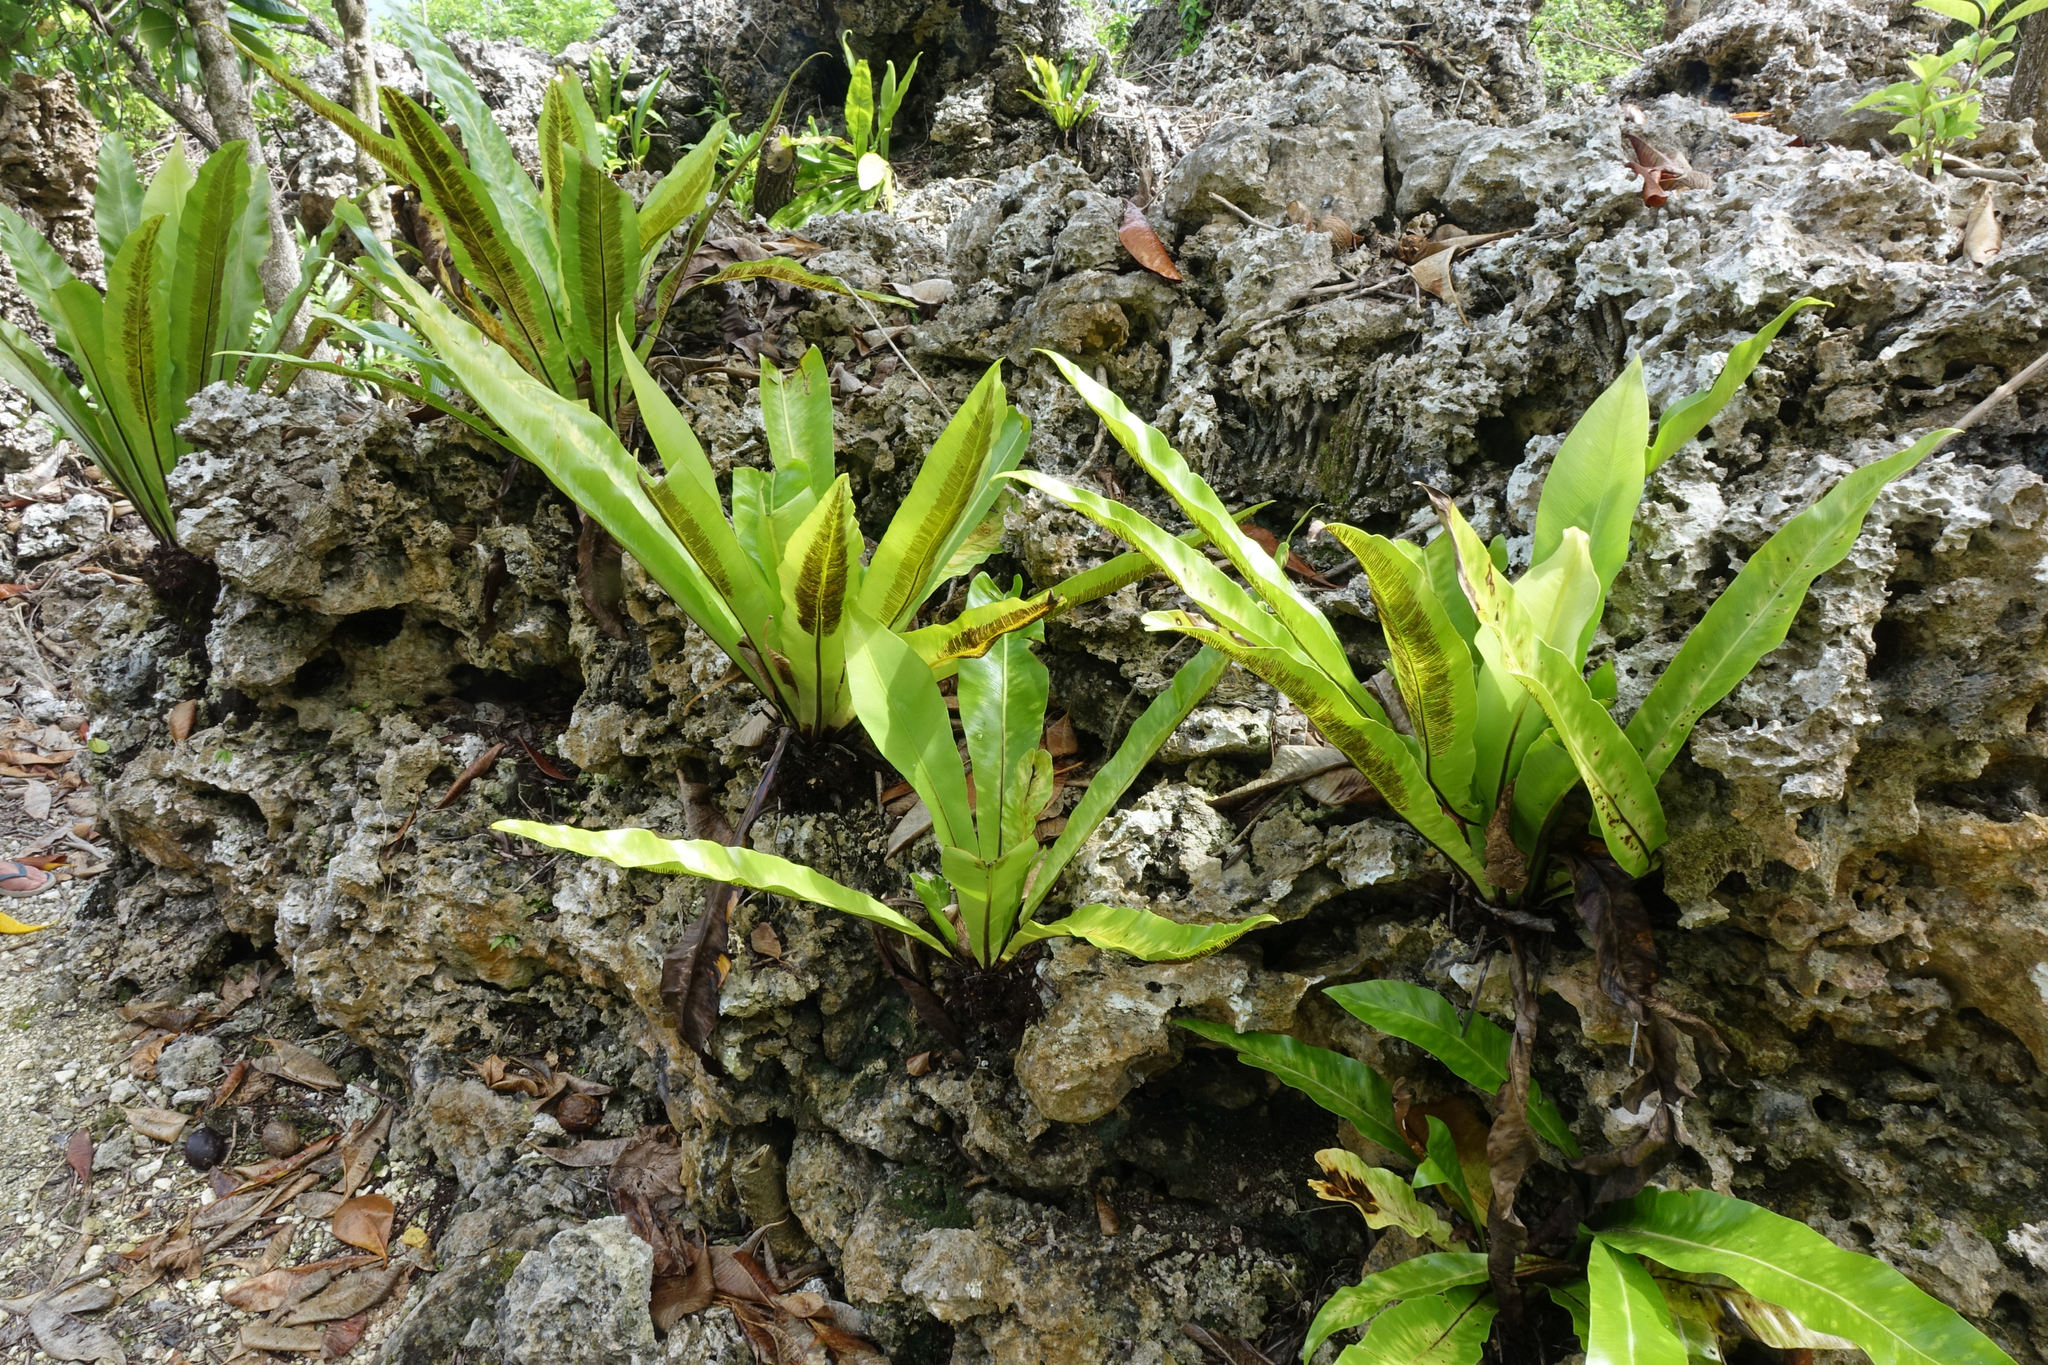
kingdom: Plantae
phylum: Tracheophyta
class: Polypodiopsida
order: Polypodiales
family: Aspleniaceae
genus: Asplenium
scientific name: Asplenium australasicum
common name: Bird's-nest fern
